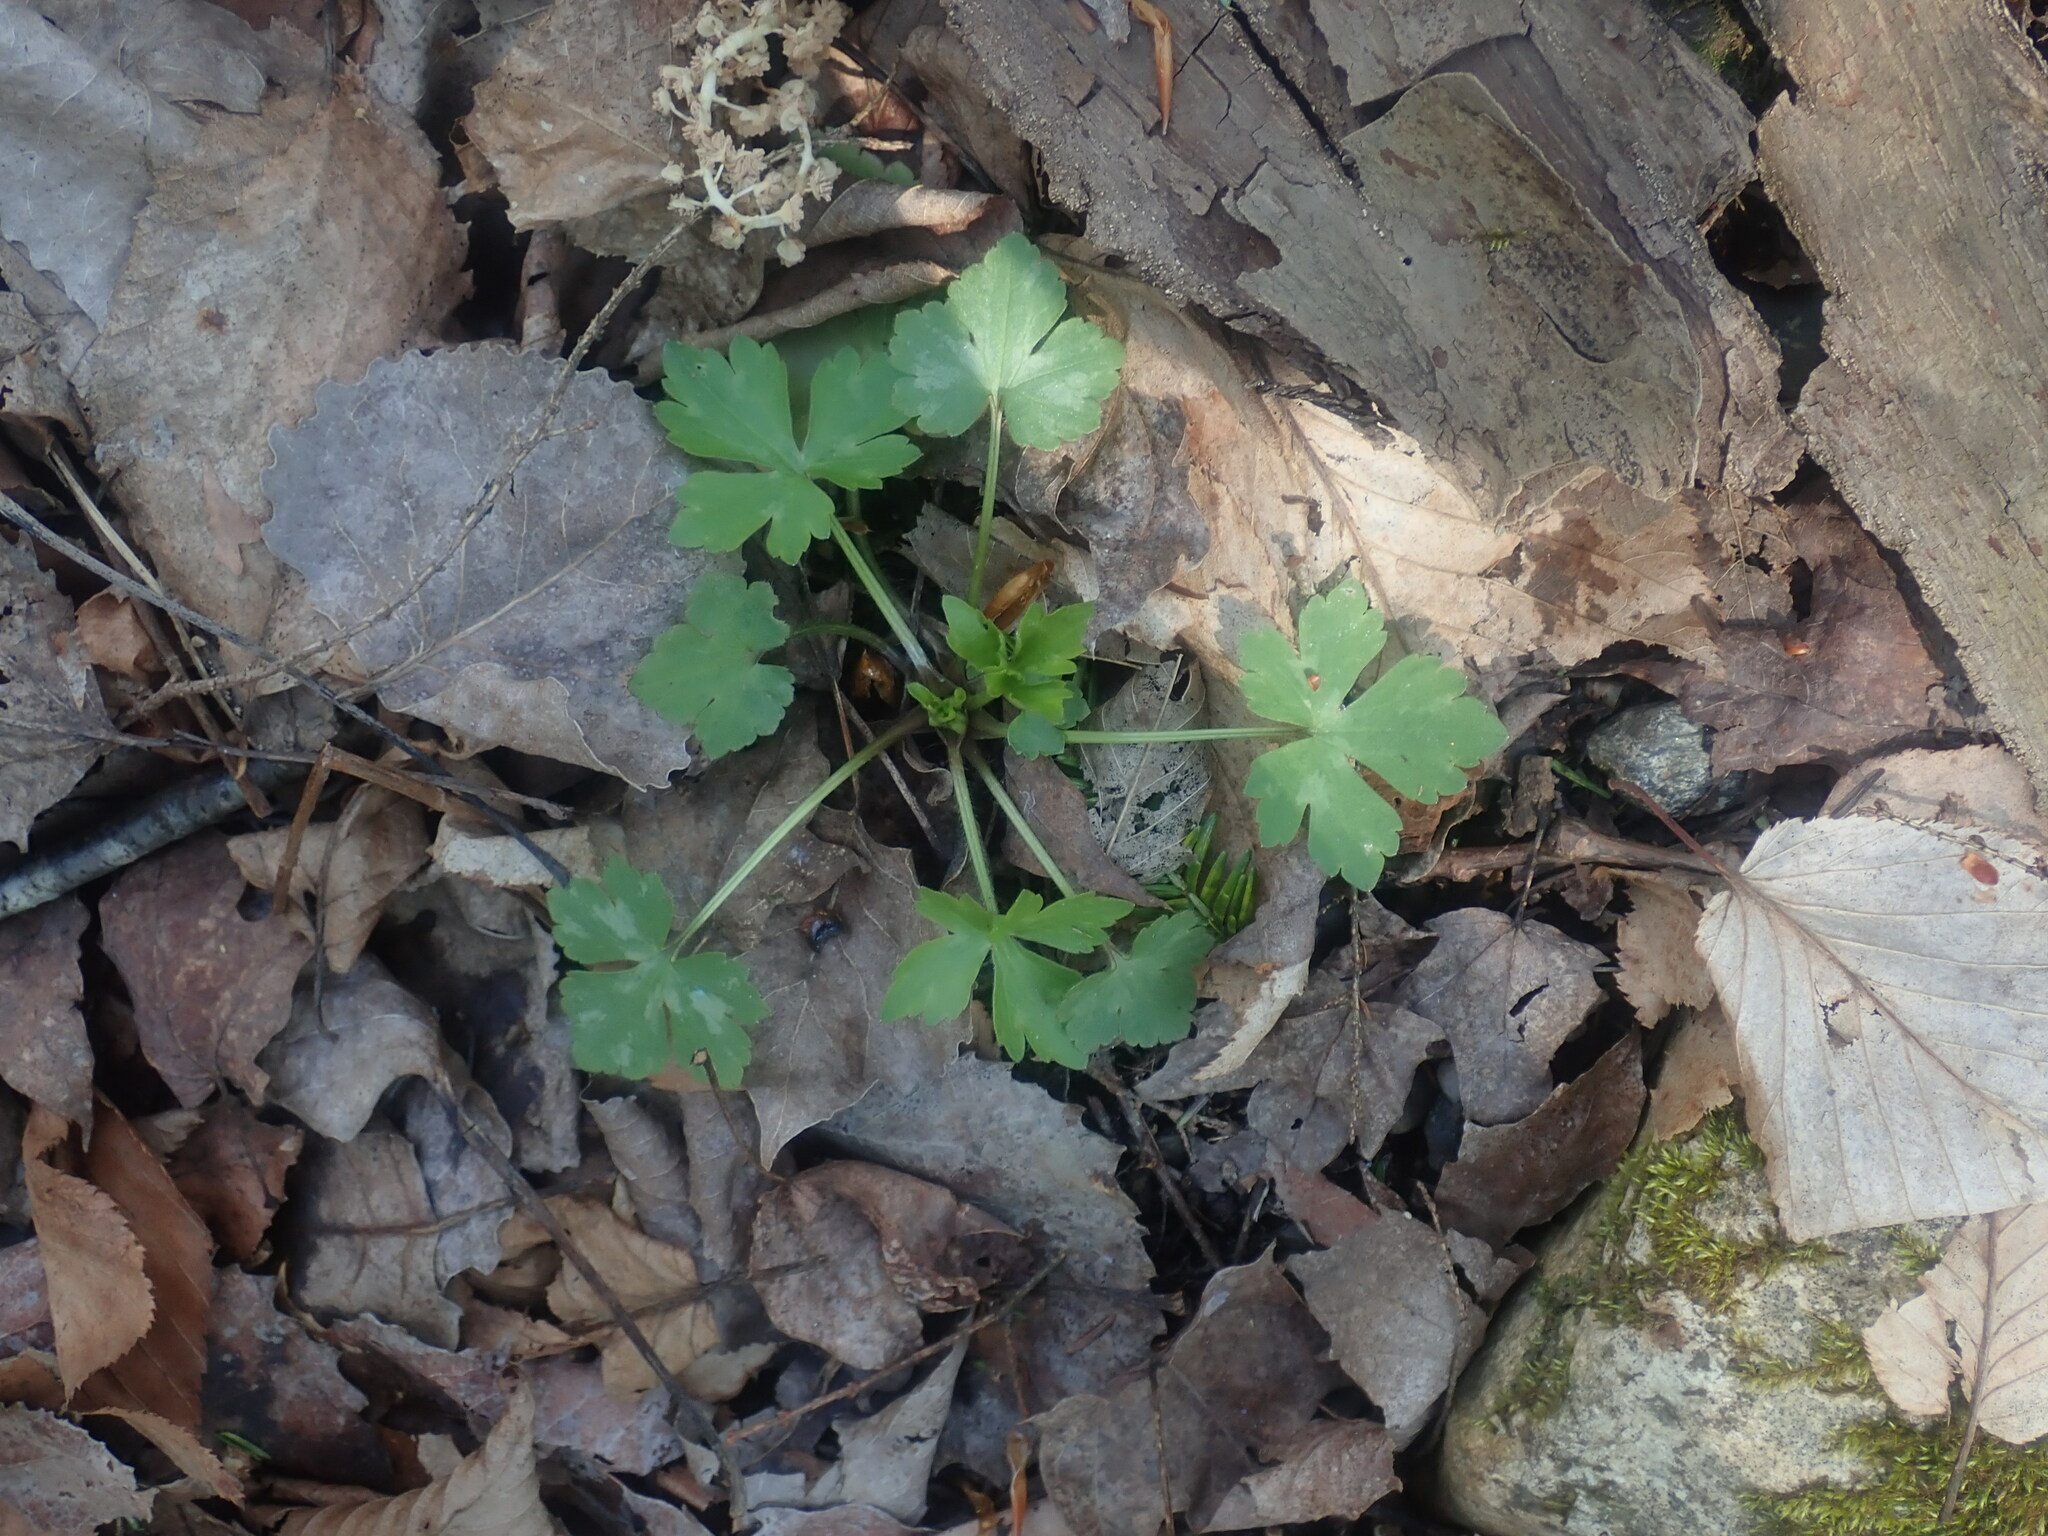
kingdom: Plantae
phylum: Tracheophyta
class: Magnoliopsida
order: Ranunculales
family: Ranunculaceae
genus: Ranunculus
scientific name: Ranunculus recurvatus
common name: Blisterwort
